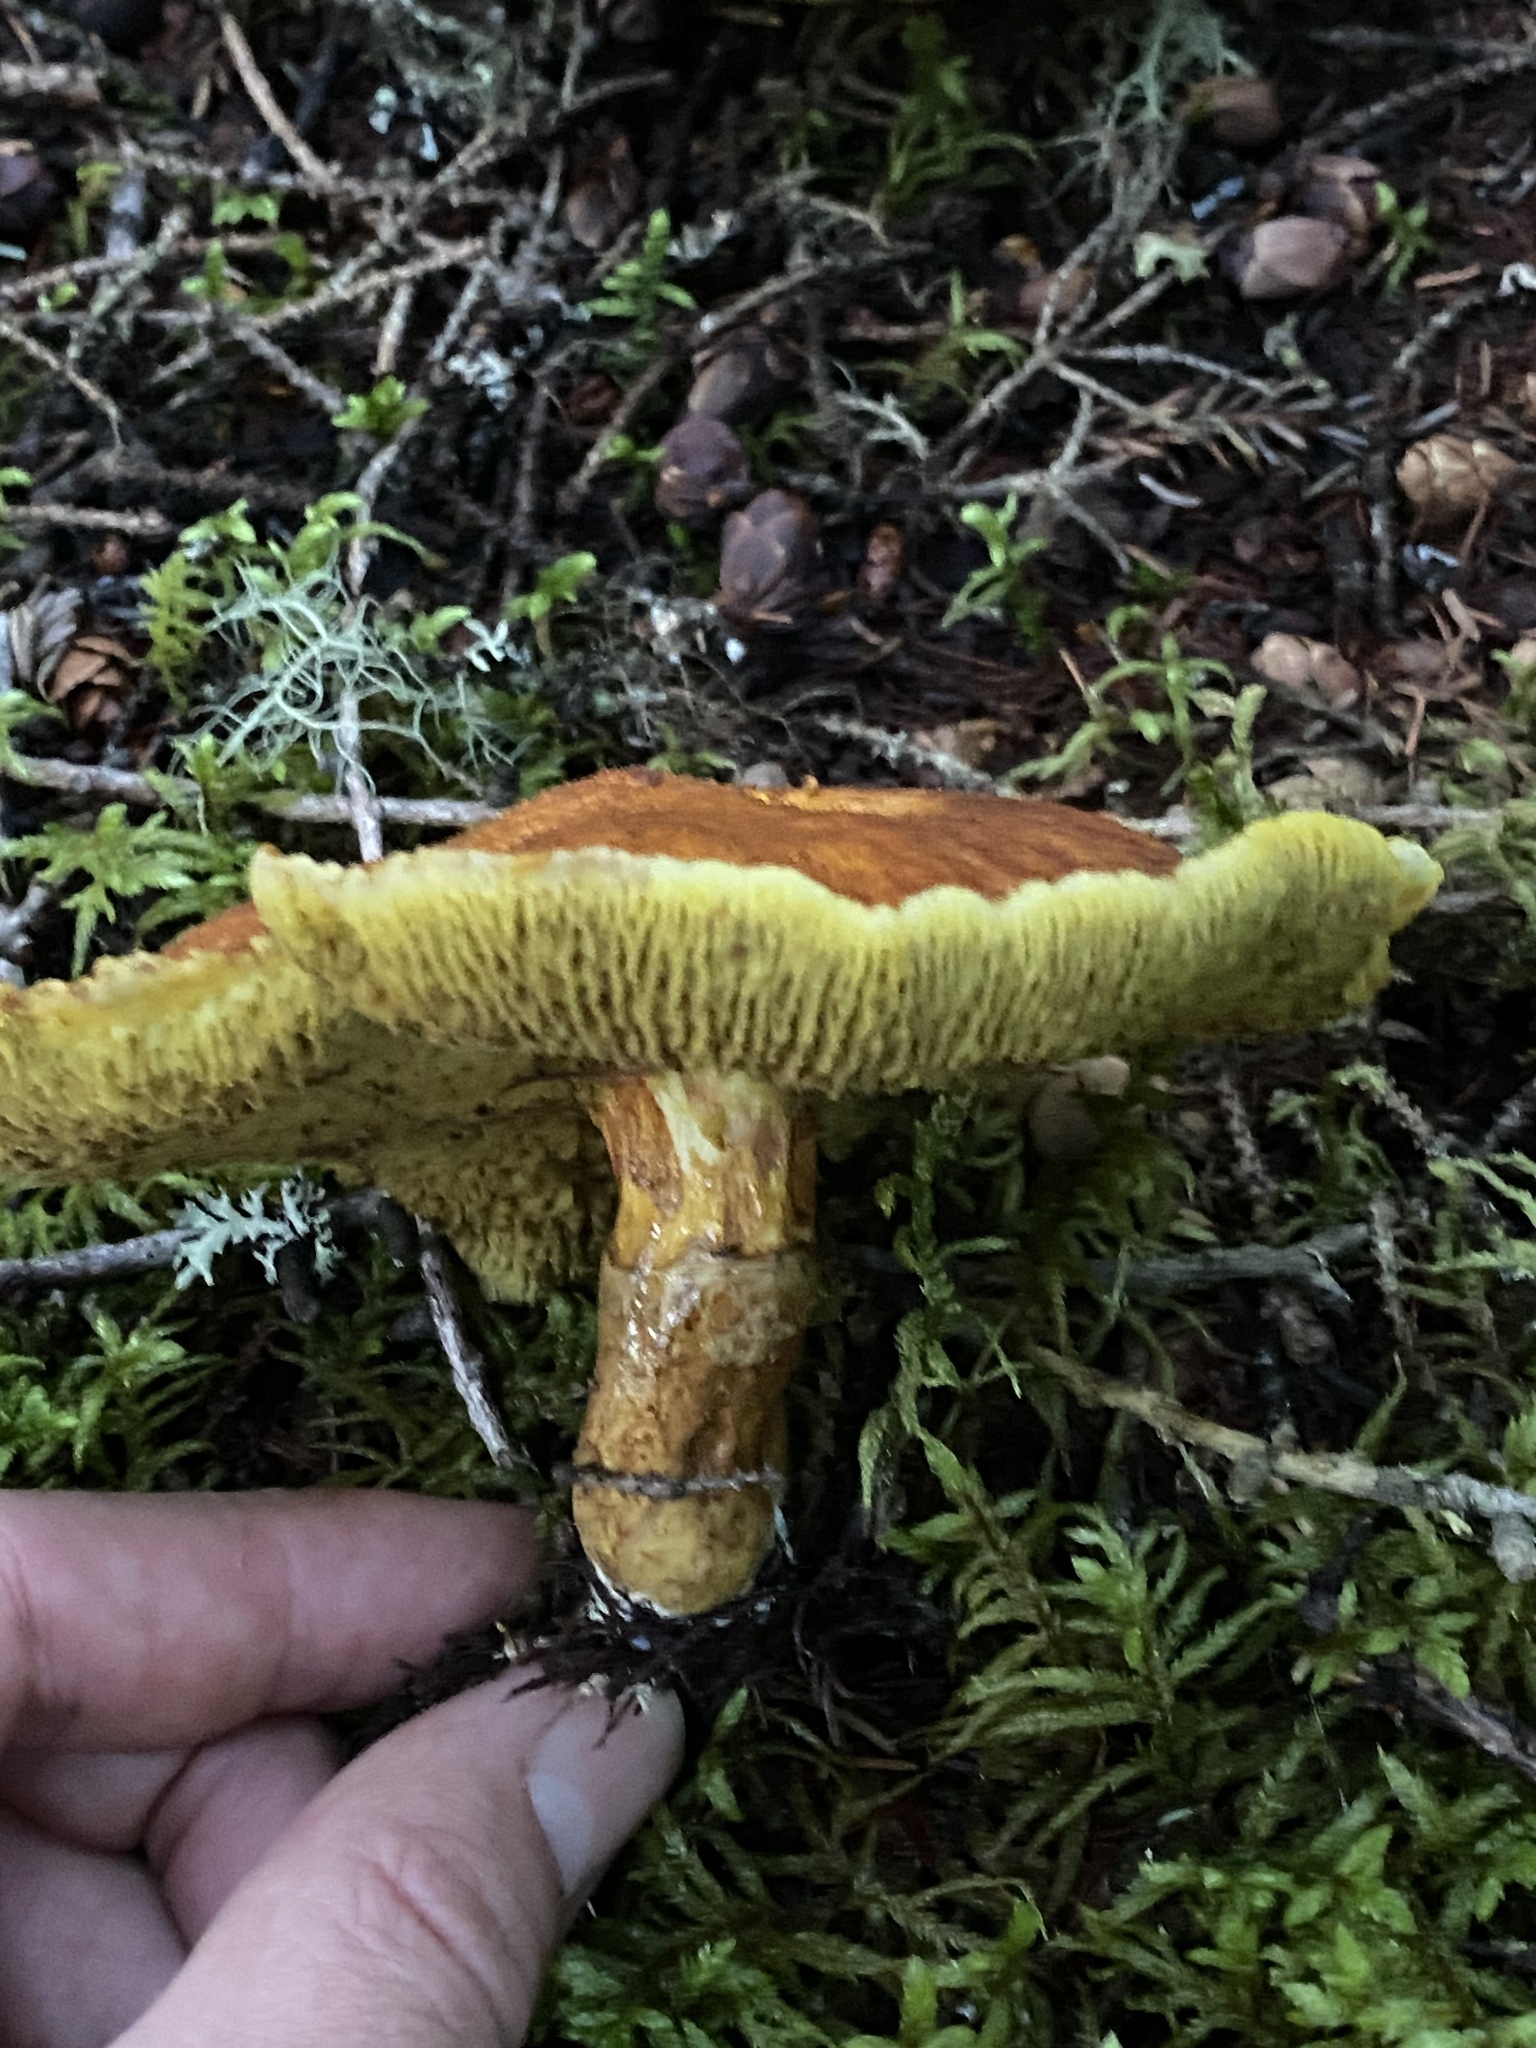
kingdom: Fungi
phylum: Basidiomycota
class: Agaricomycetes
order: Boletales
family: Suillaceae
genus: Boletinus
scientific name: Boletinus ampliporus
